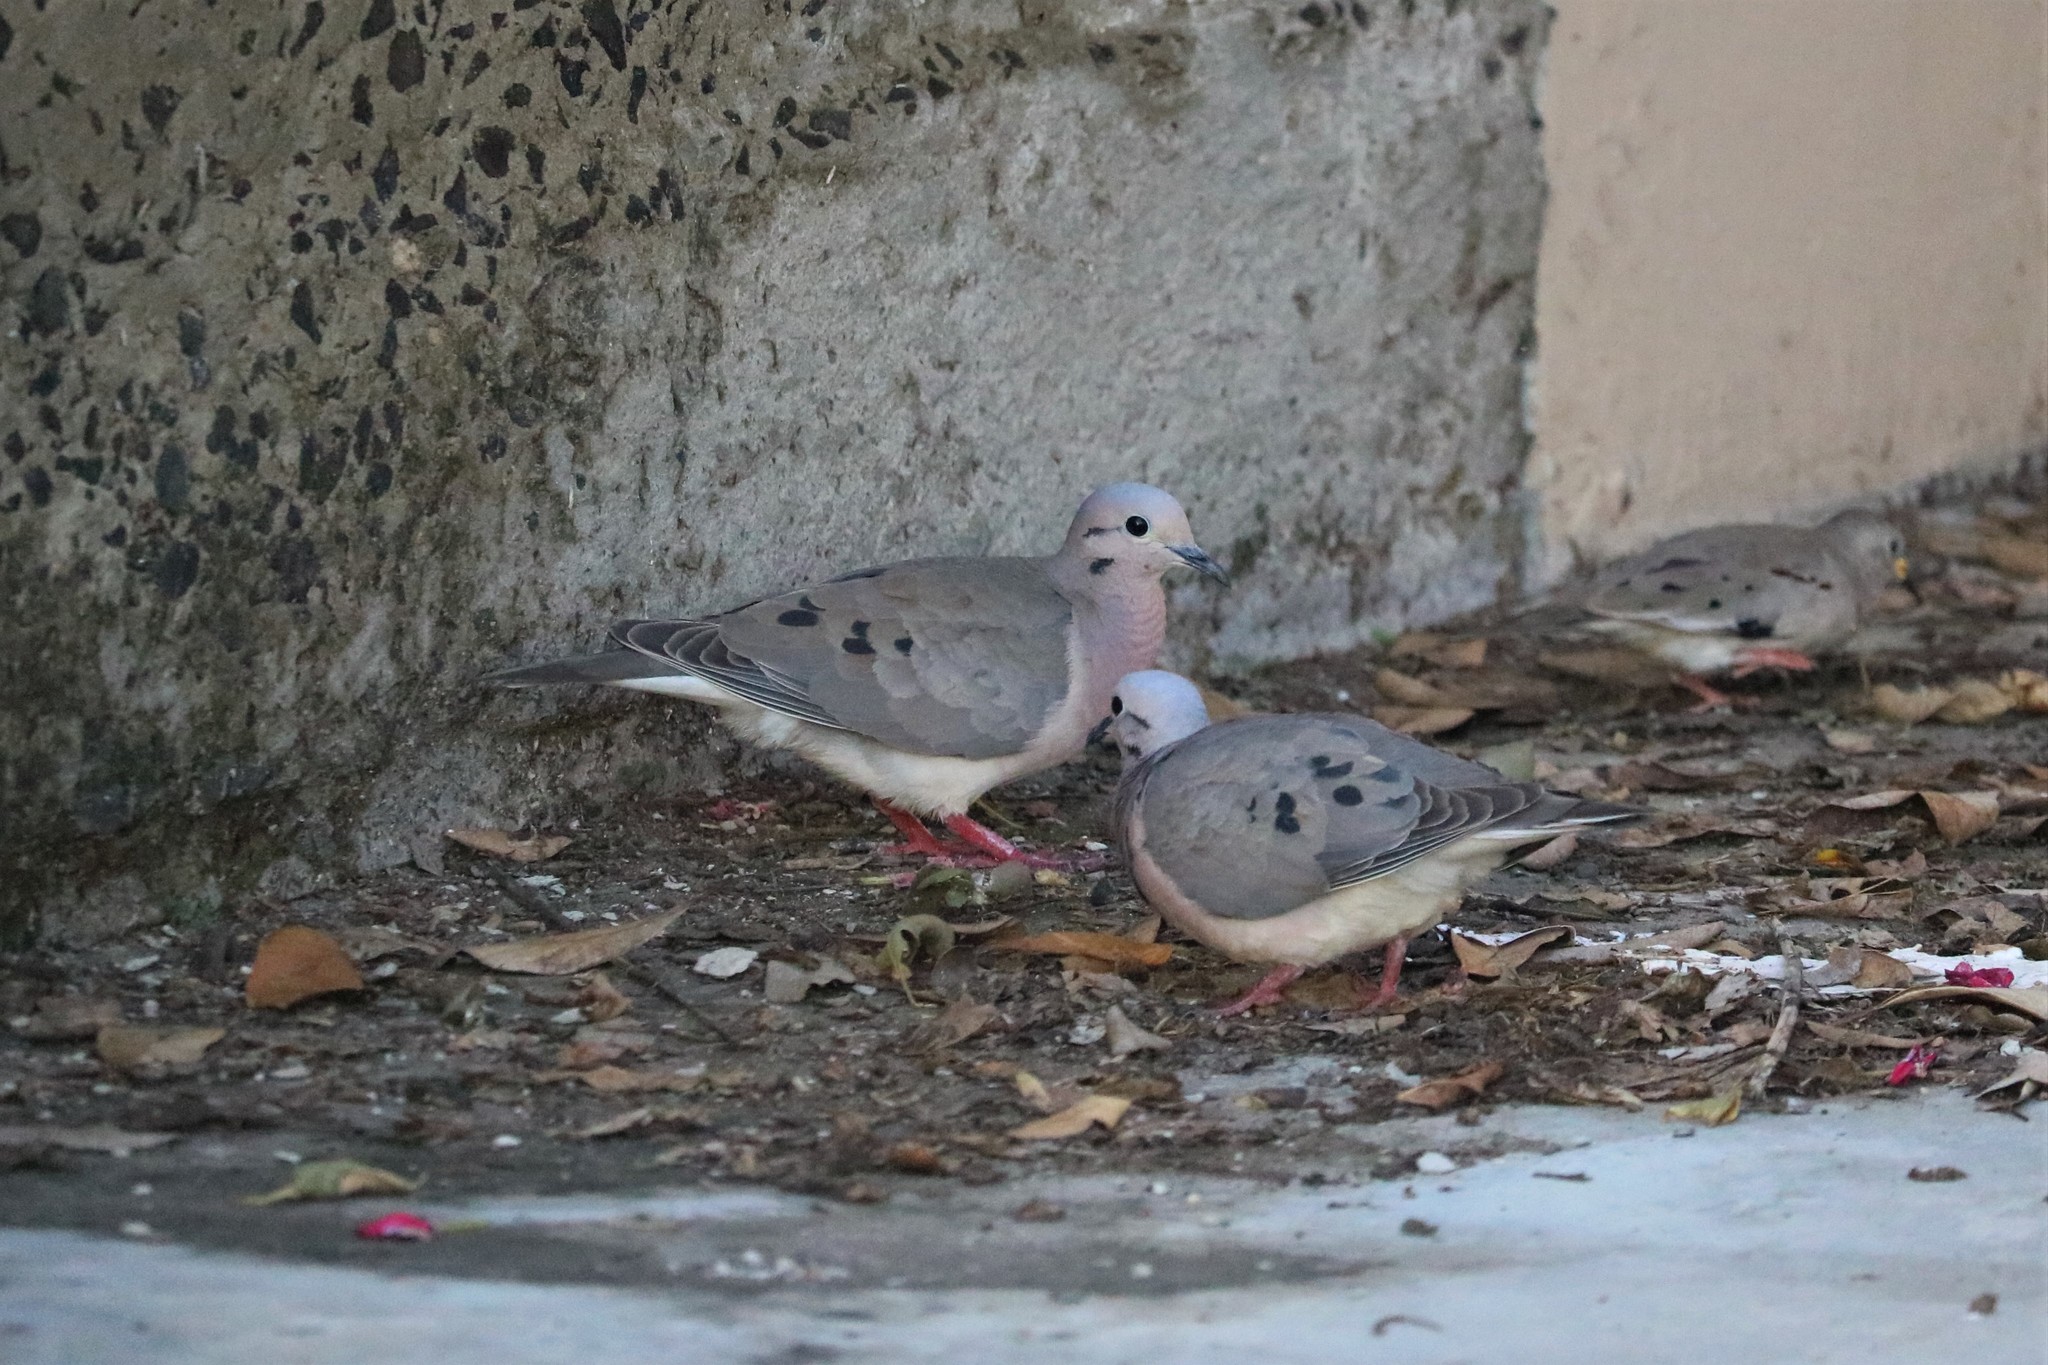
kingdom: Animalia
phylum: Chordata
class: Aves
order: Columbiformes
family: Columbidae
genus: Zenaida
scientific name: Zenaida auriculata
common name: Eared dove
